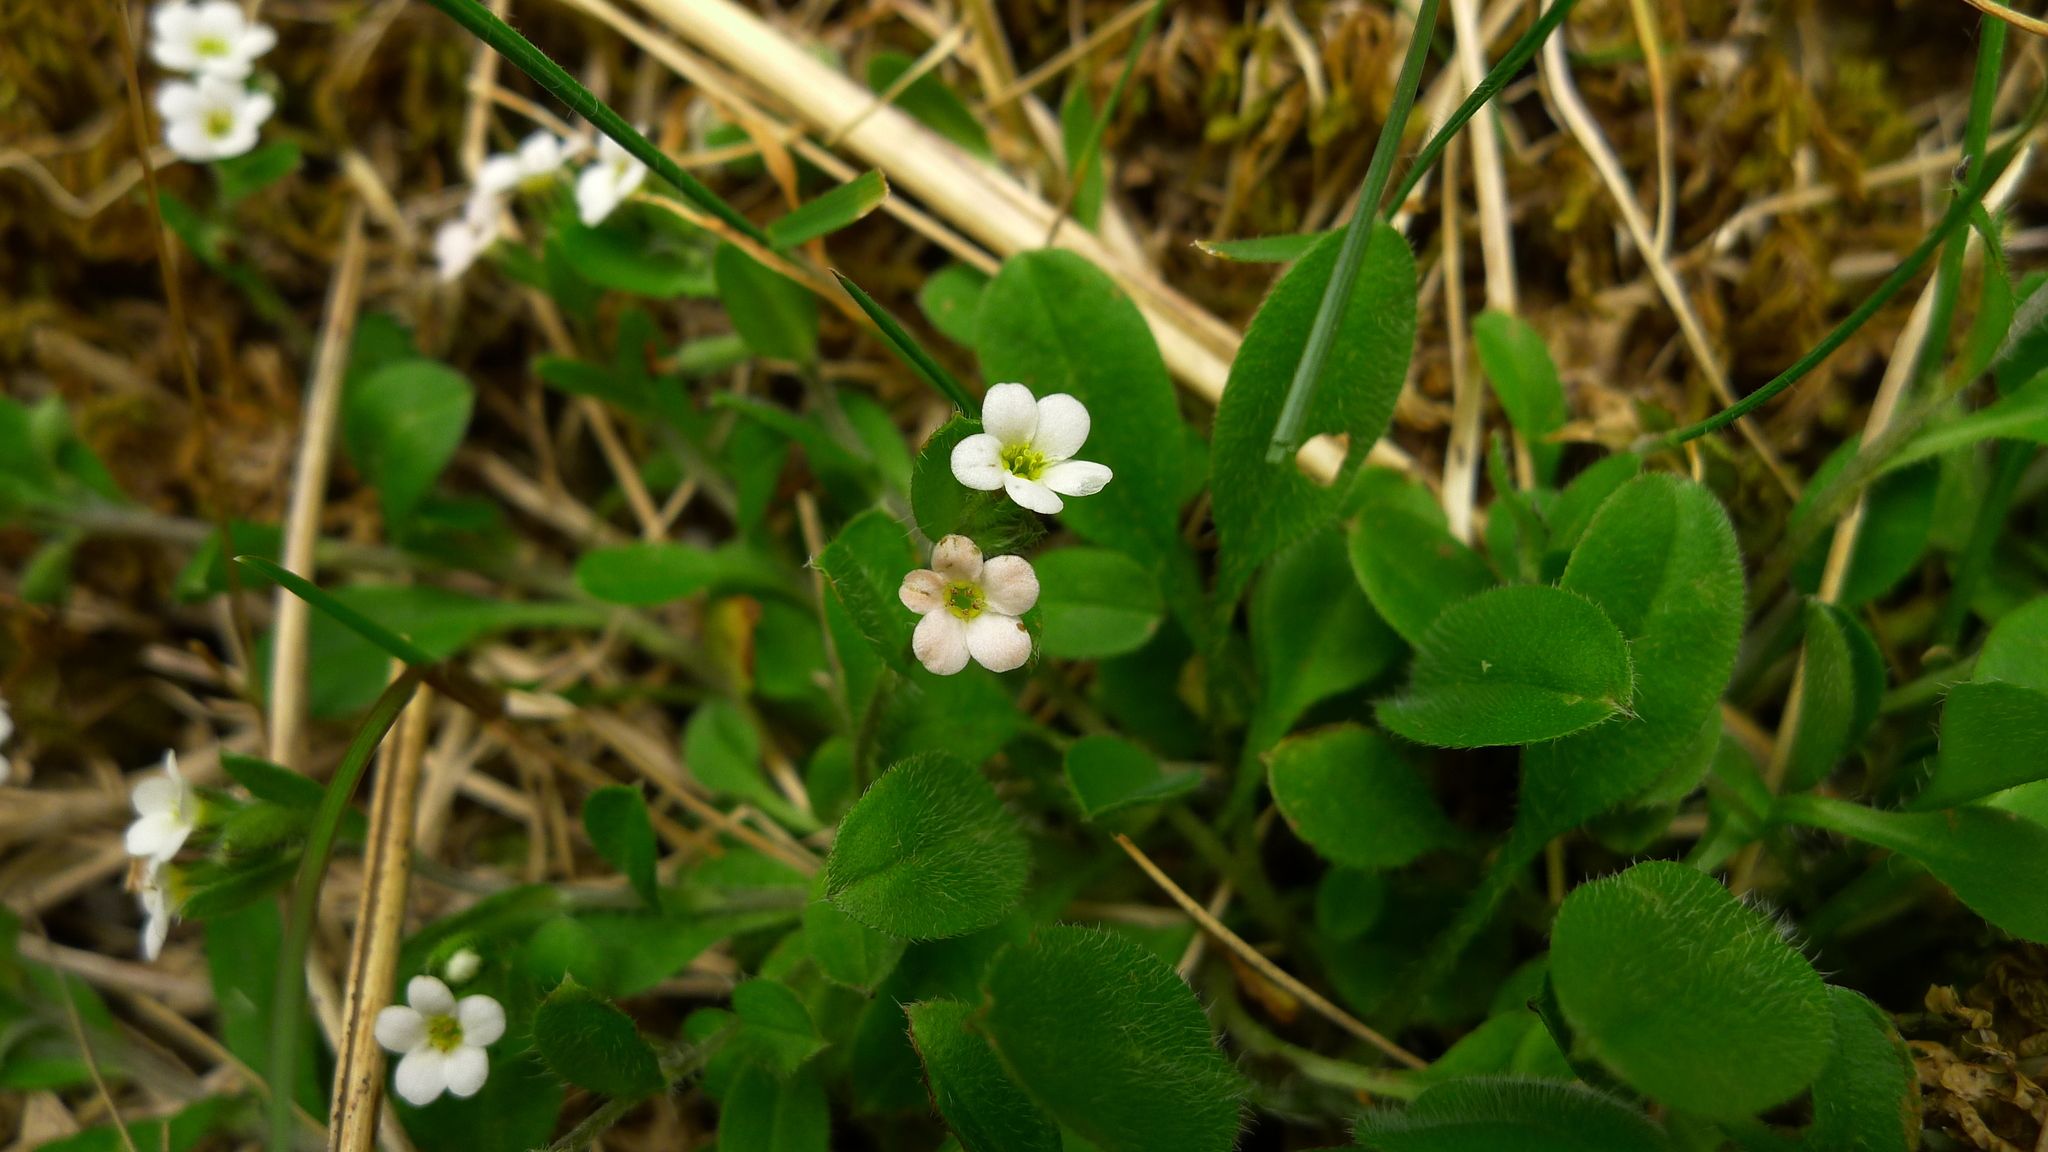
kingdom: Plantae
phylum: Tracheophyta
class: Magnoliopsida
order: Boraginales
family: Boraginaceae
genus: Myosotis
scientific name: Myosotis venosa
